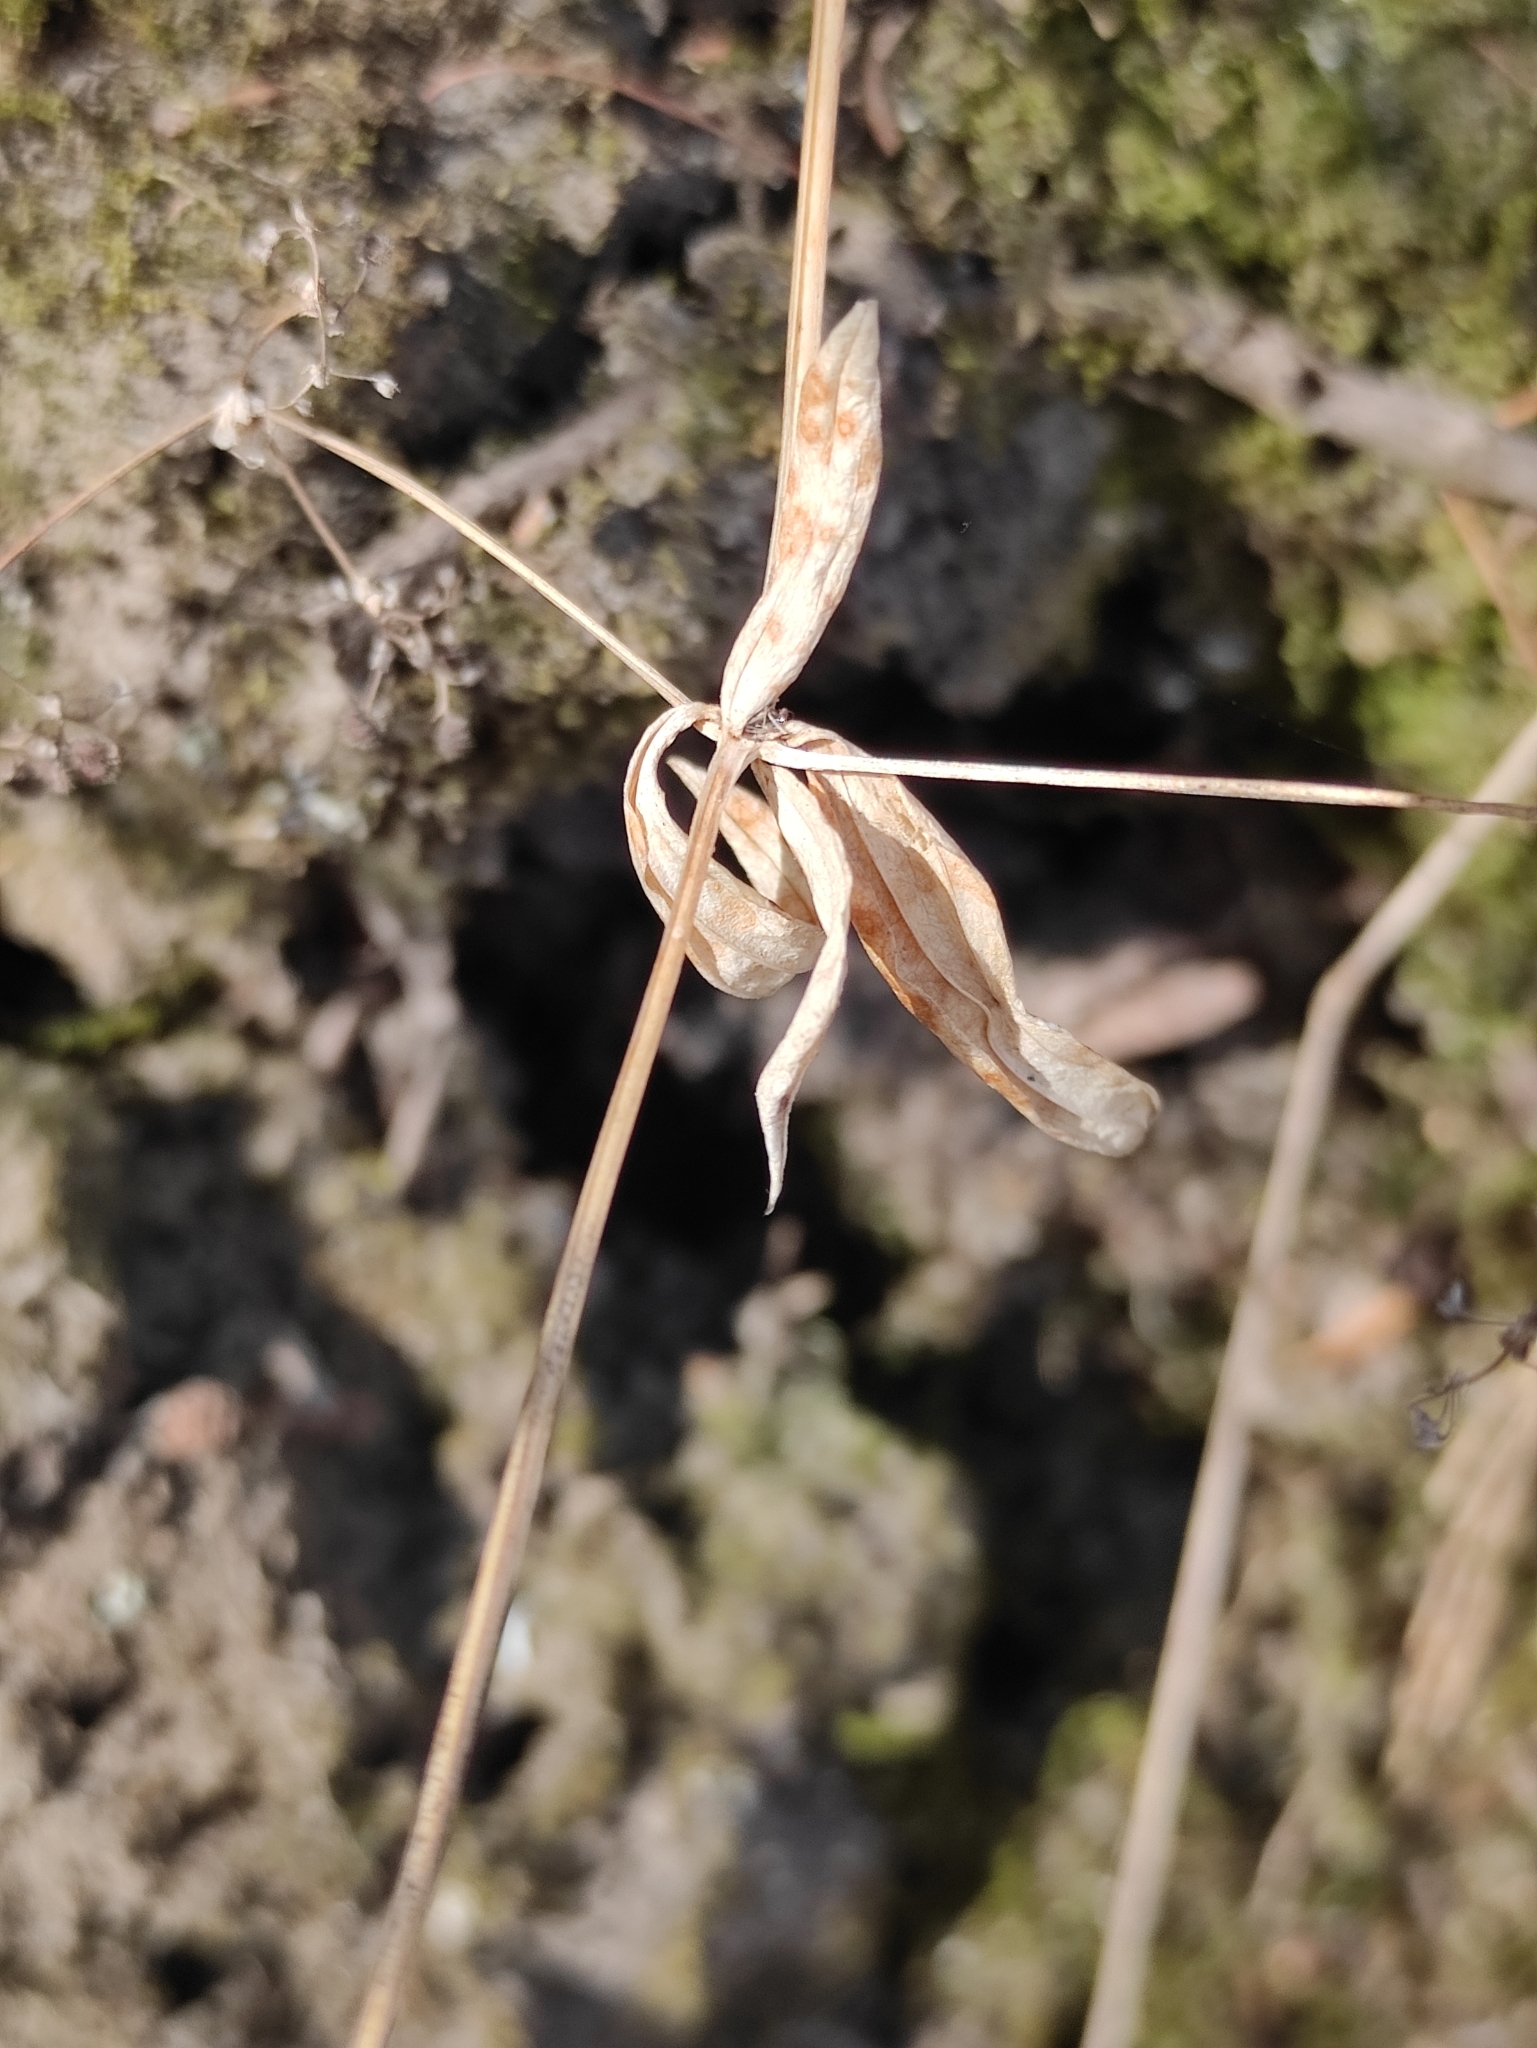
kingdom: Plantae
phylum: Tracheophyta
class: Magnoliopsida
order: Gentianales
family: Rubiaceae
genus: Galium
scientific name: Galium boreale
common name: Northern bedstraw
